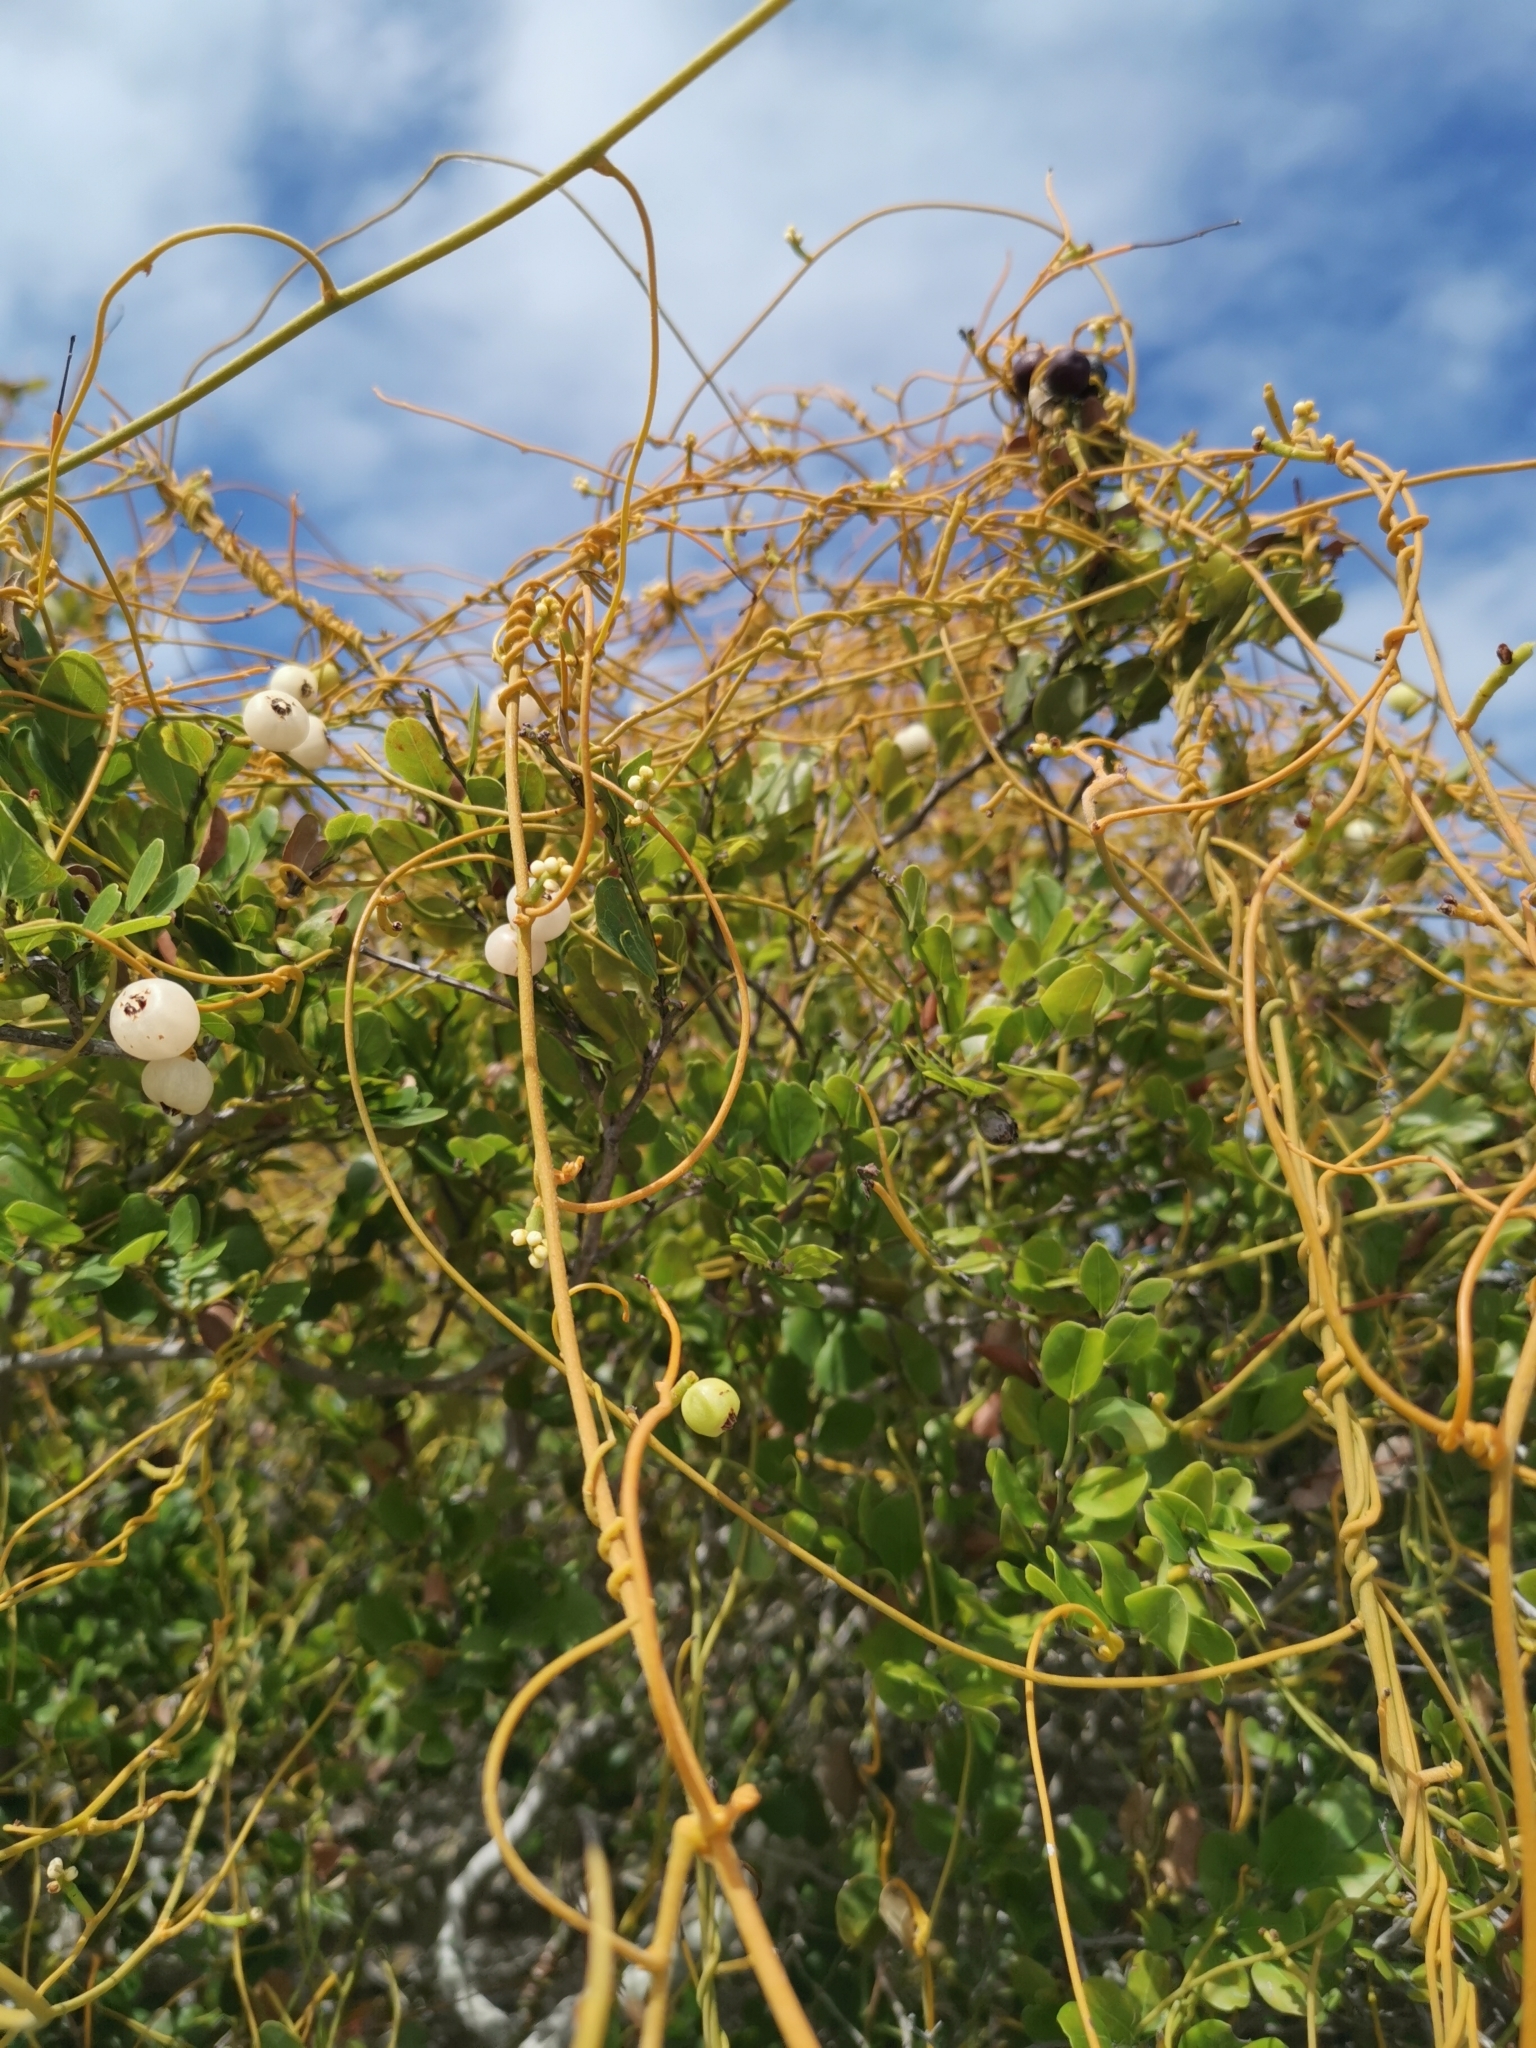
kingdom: Plantae
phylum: Tracheophyta
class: Magnoliopsida
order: Laurales
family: Lauraceae
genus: Cassytha
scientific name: Cassytha filiformis
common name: Dodder-laurel
